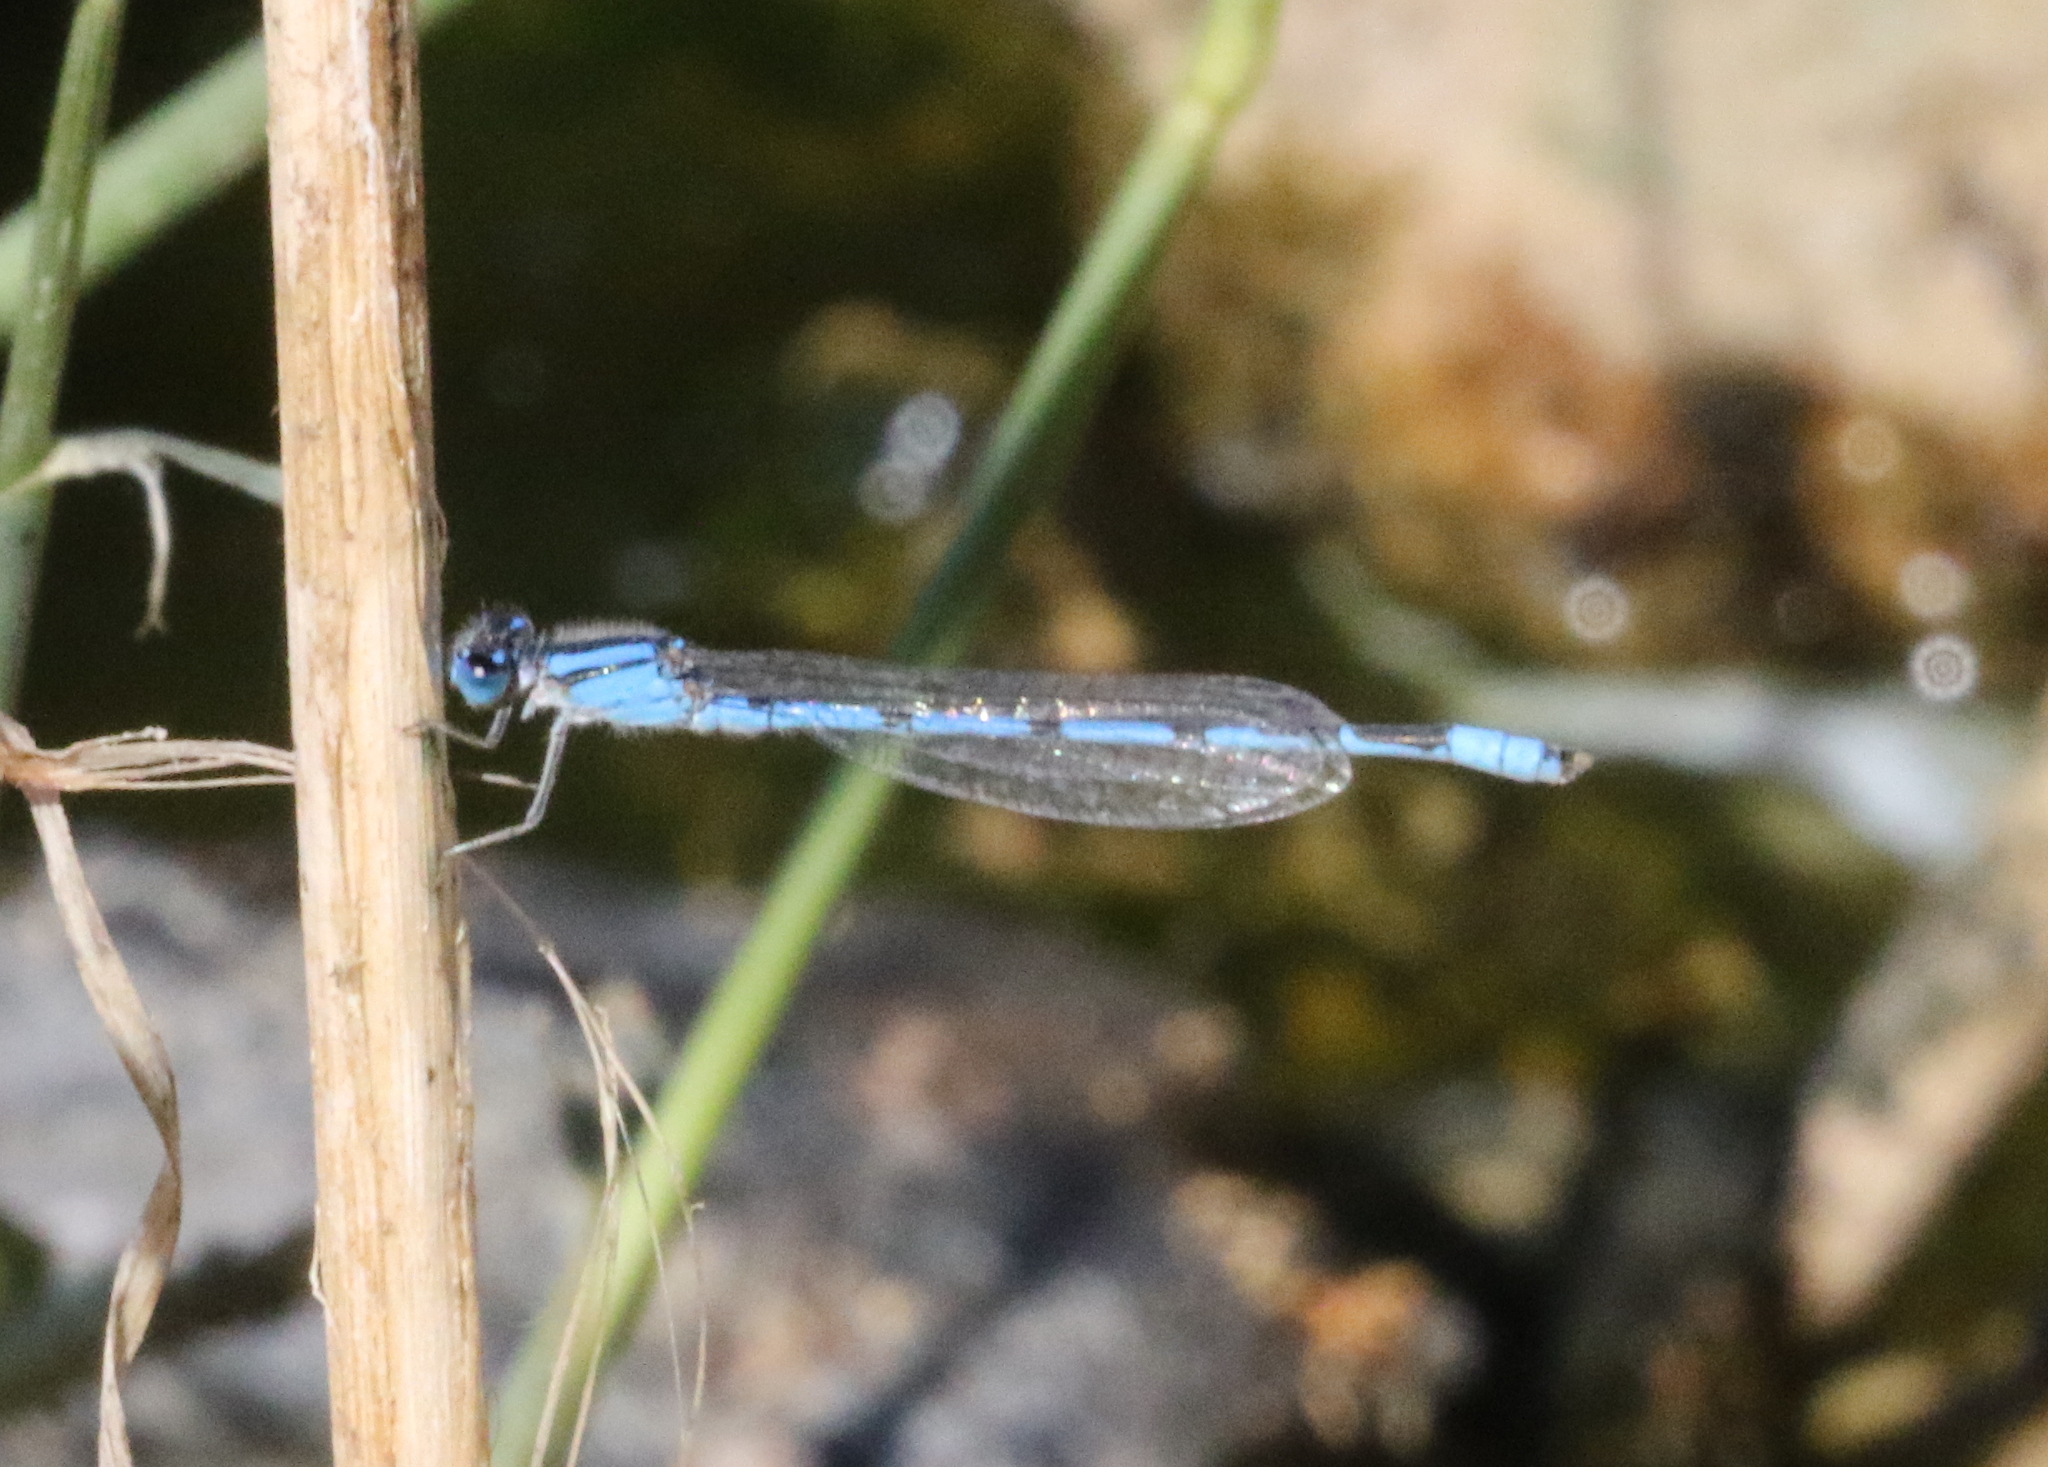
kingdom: Animalia
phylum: Arthropoda
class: Insecta
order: Odonata
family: Coenagrionidae
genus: Enallagma
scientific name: Enallagma civile
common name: Damselfly
